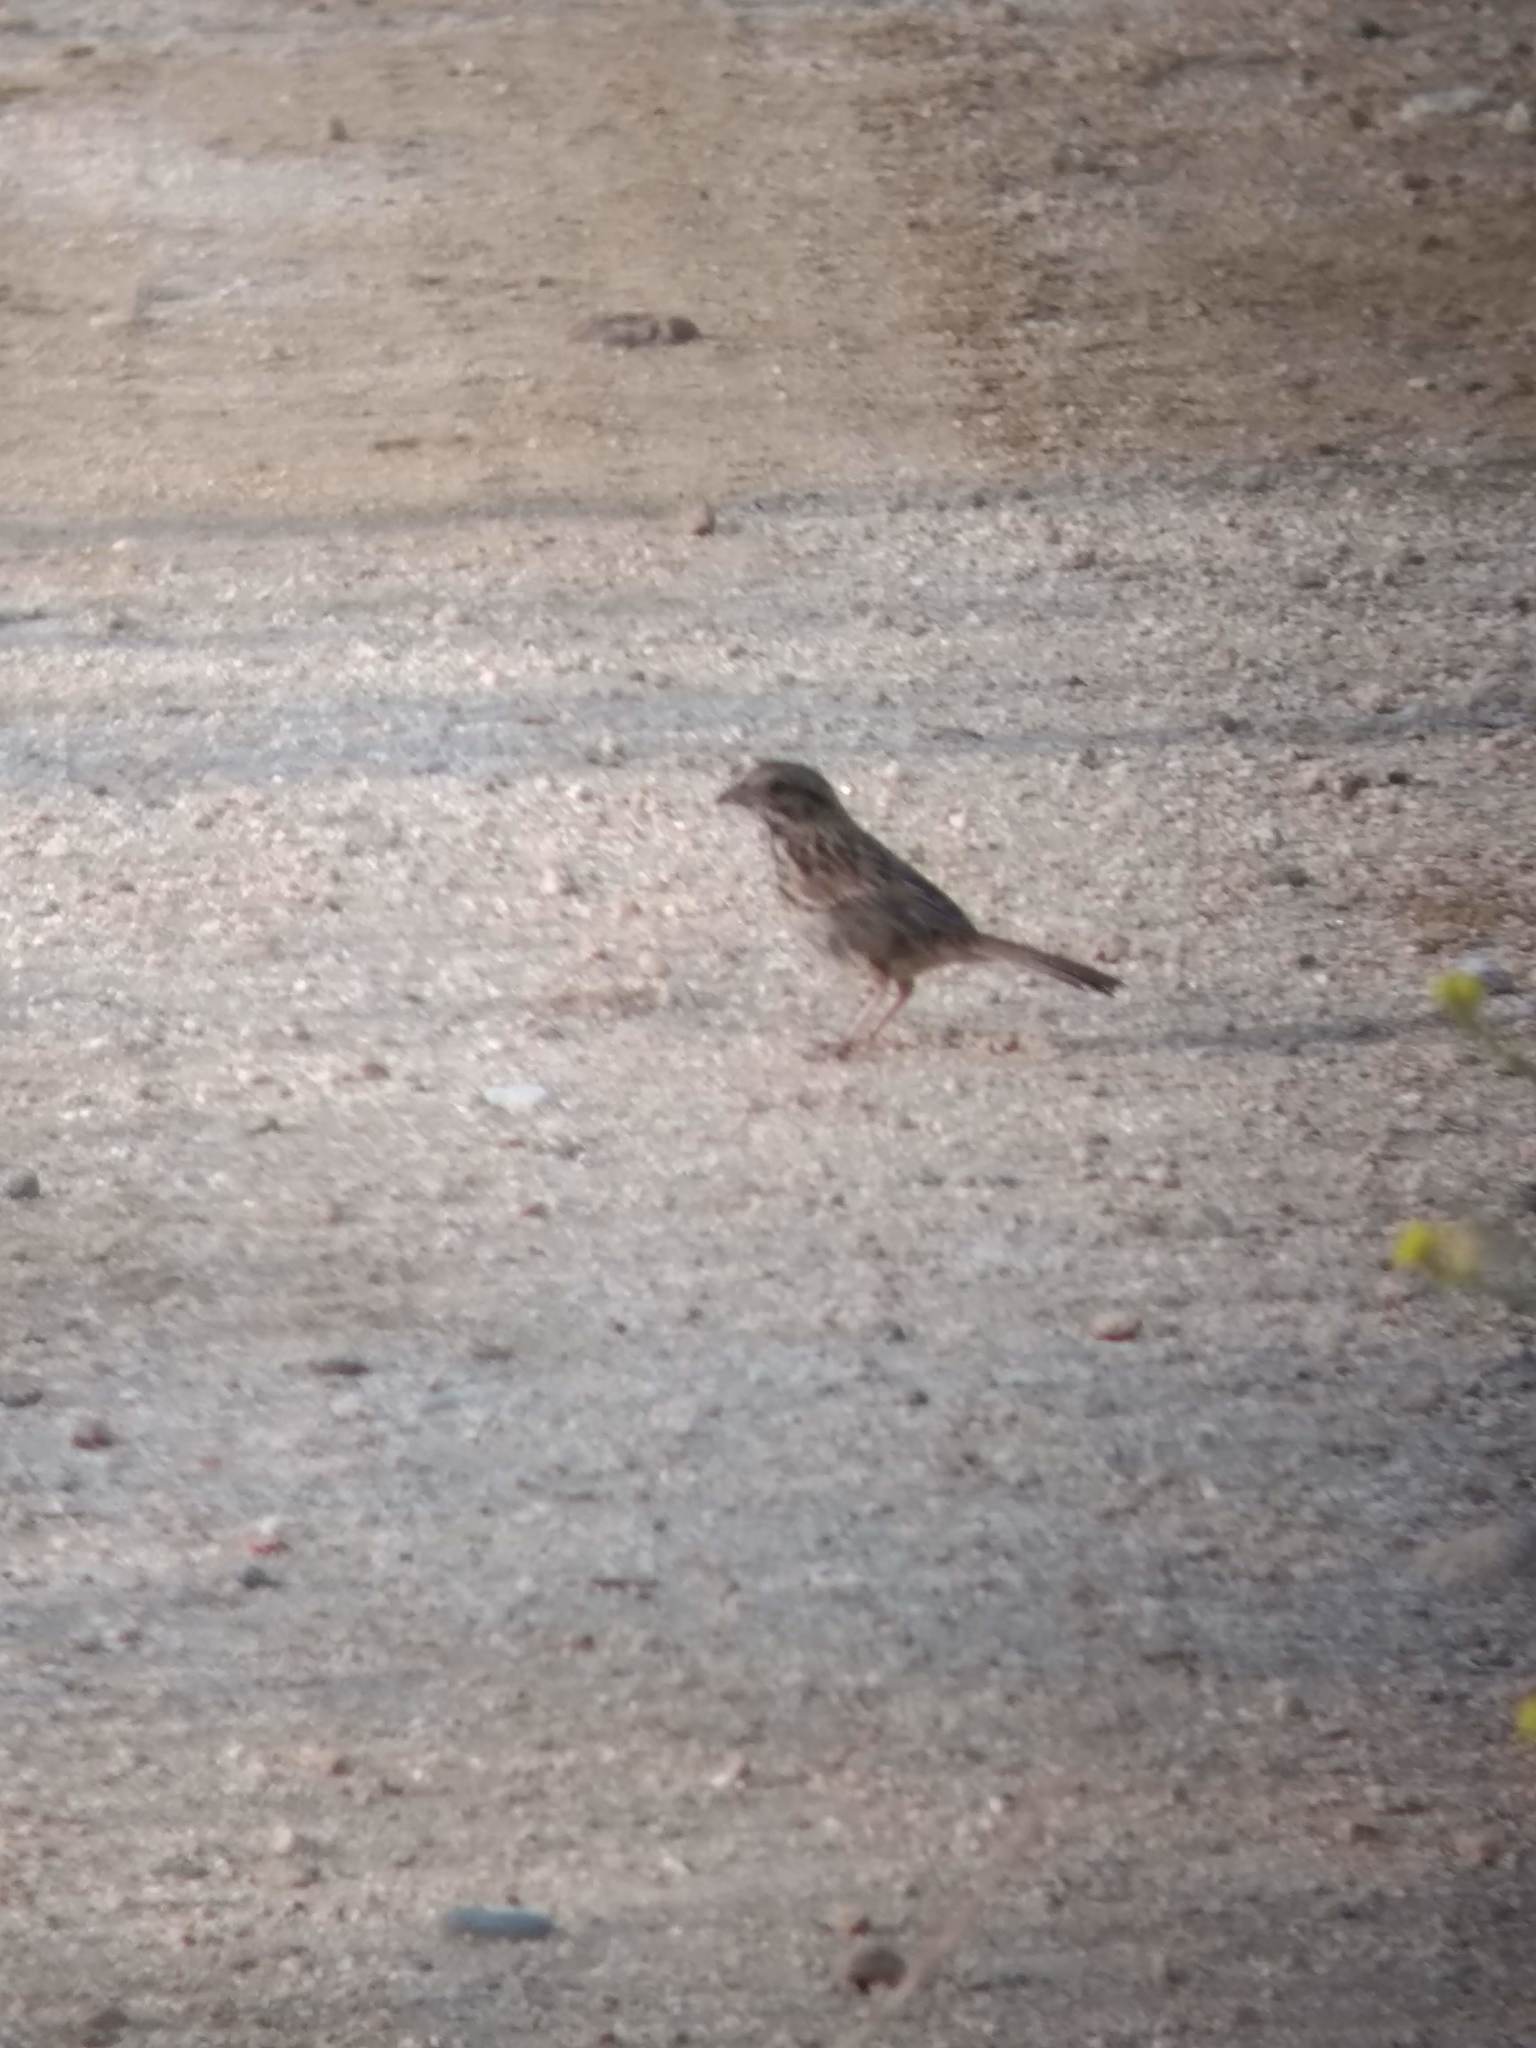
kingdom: Animalia
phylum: Chordata
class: Aves
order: Passeriformes
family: Passerellidae
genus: Melospiza
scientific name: Melospiza melodia
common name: Song sparrow
